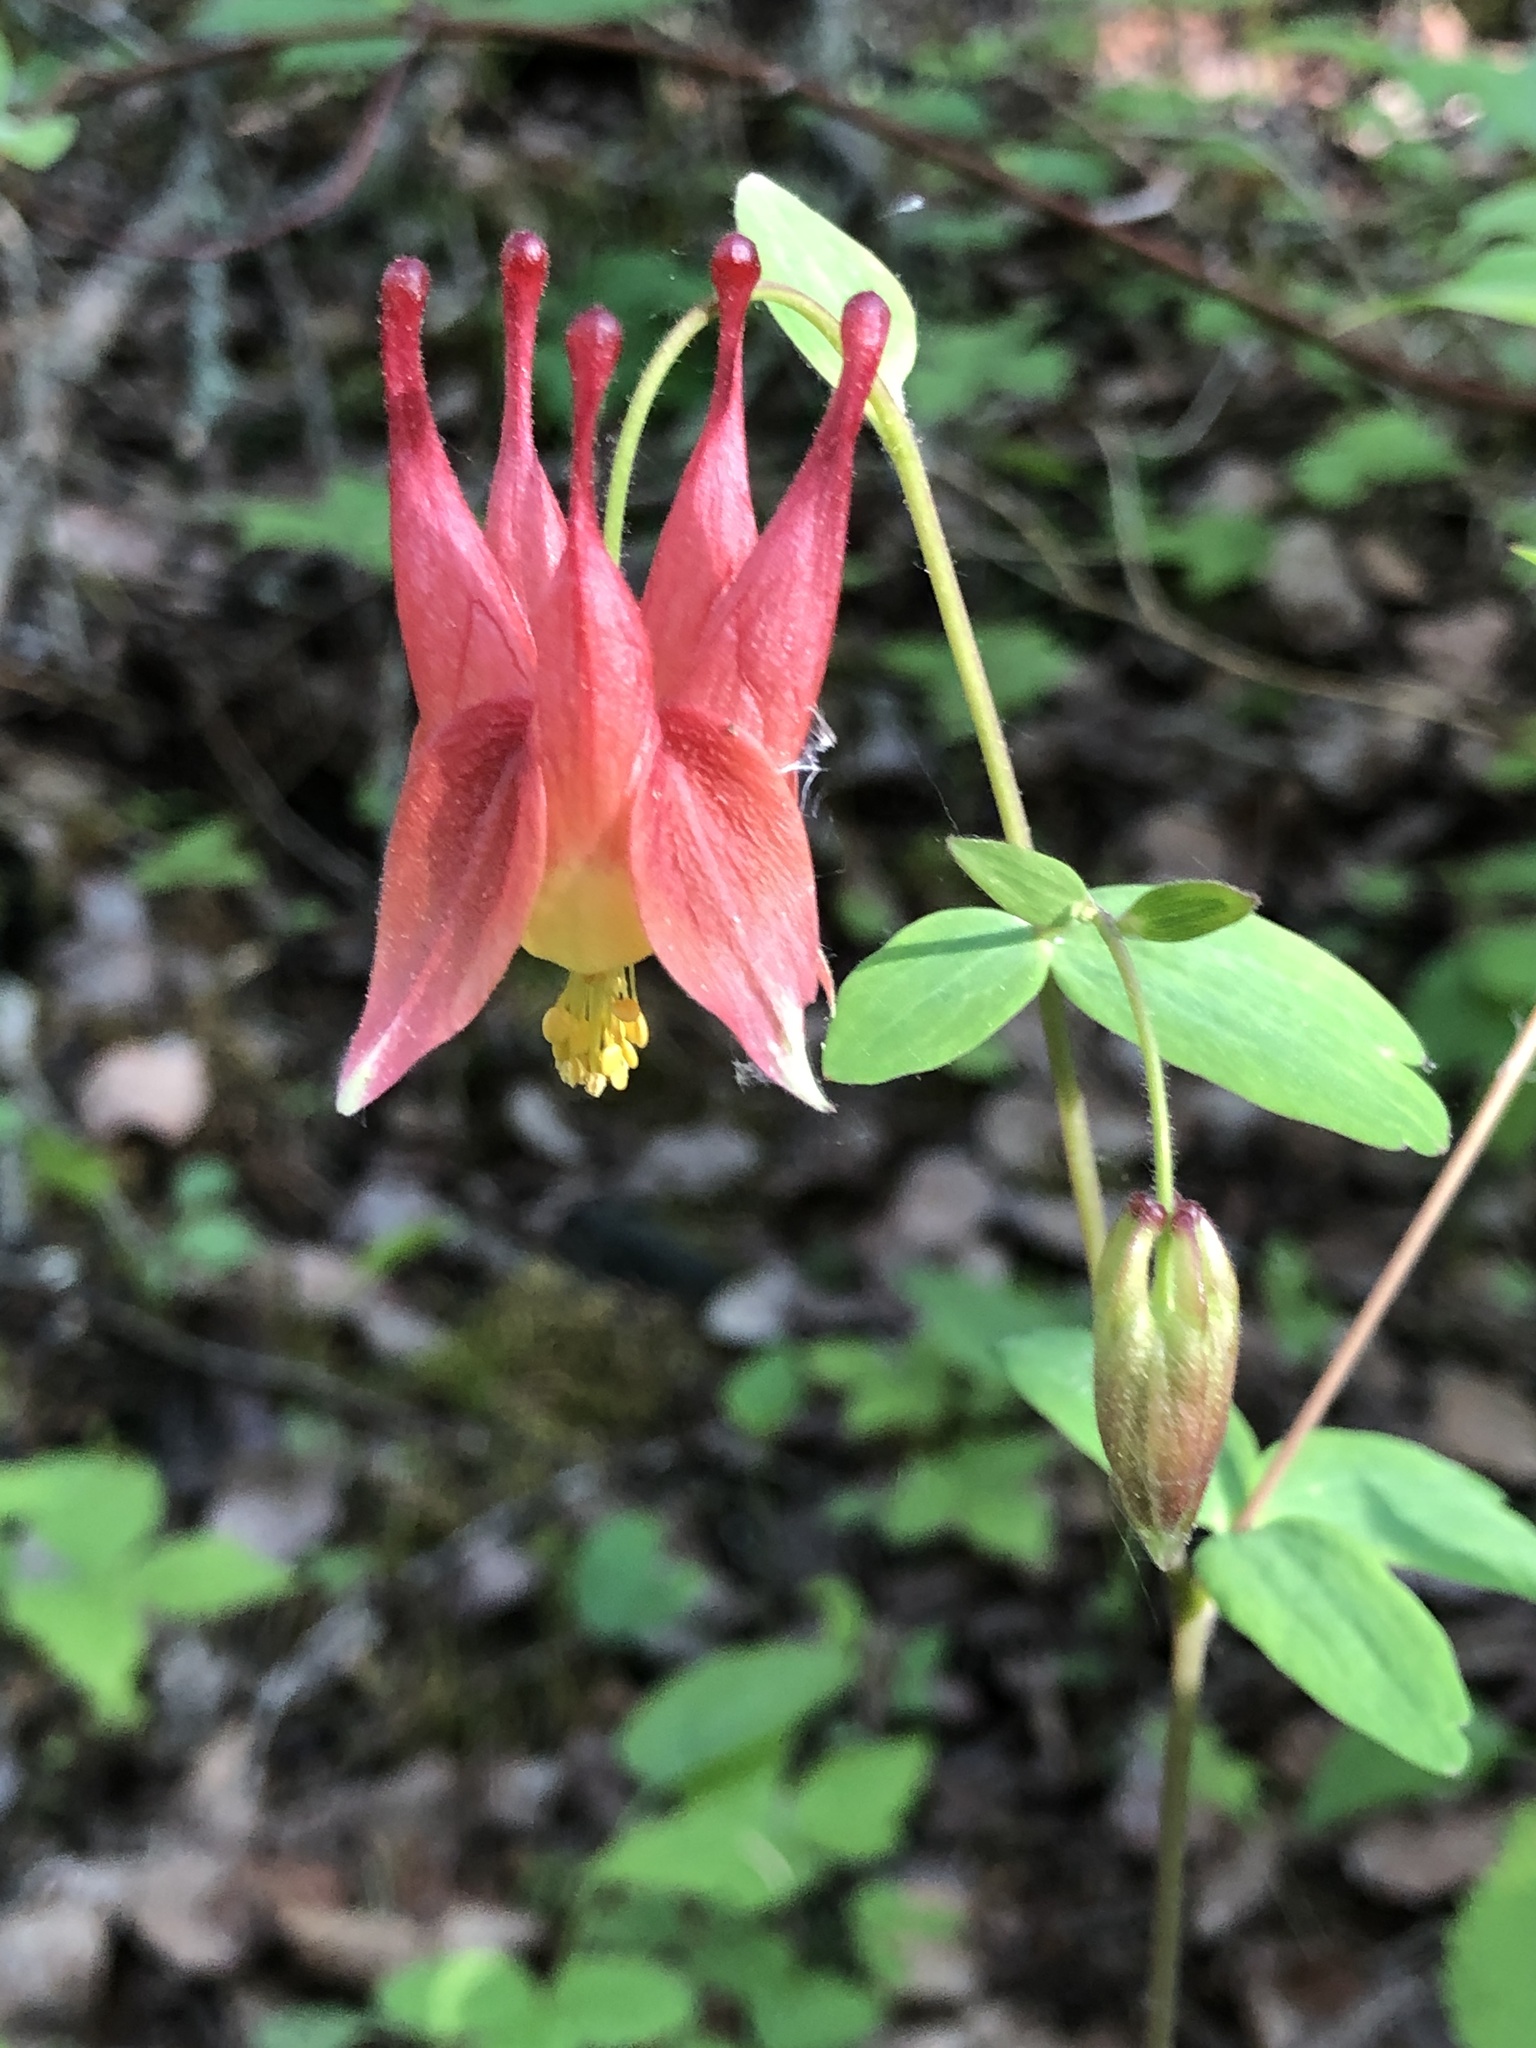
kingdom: Plantae
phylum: Tracheophyta
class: Magnoliopsida
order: Ranunculales
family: Ranunculaceae
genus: Aquilegia
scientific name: Aquilegia canadensis
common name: American columbine
